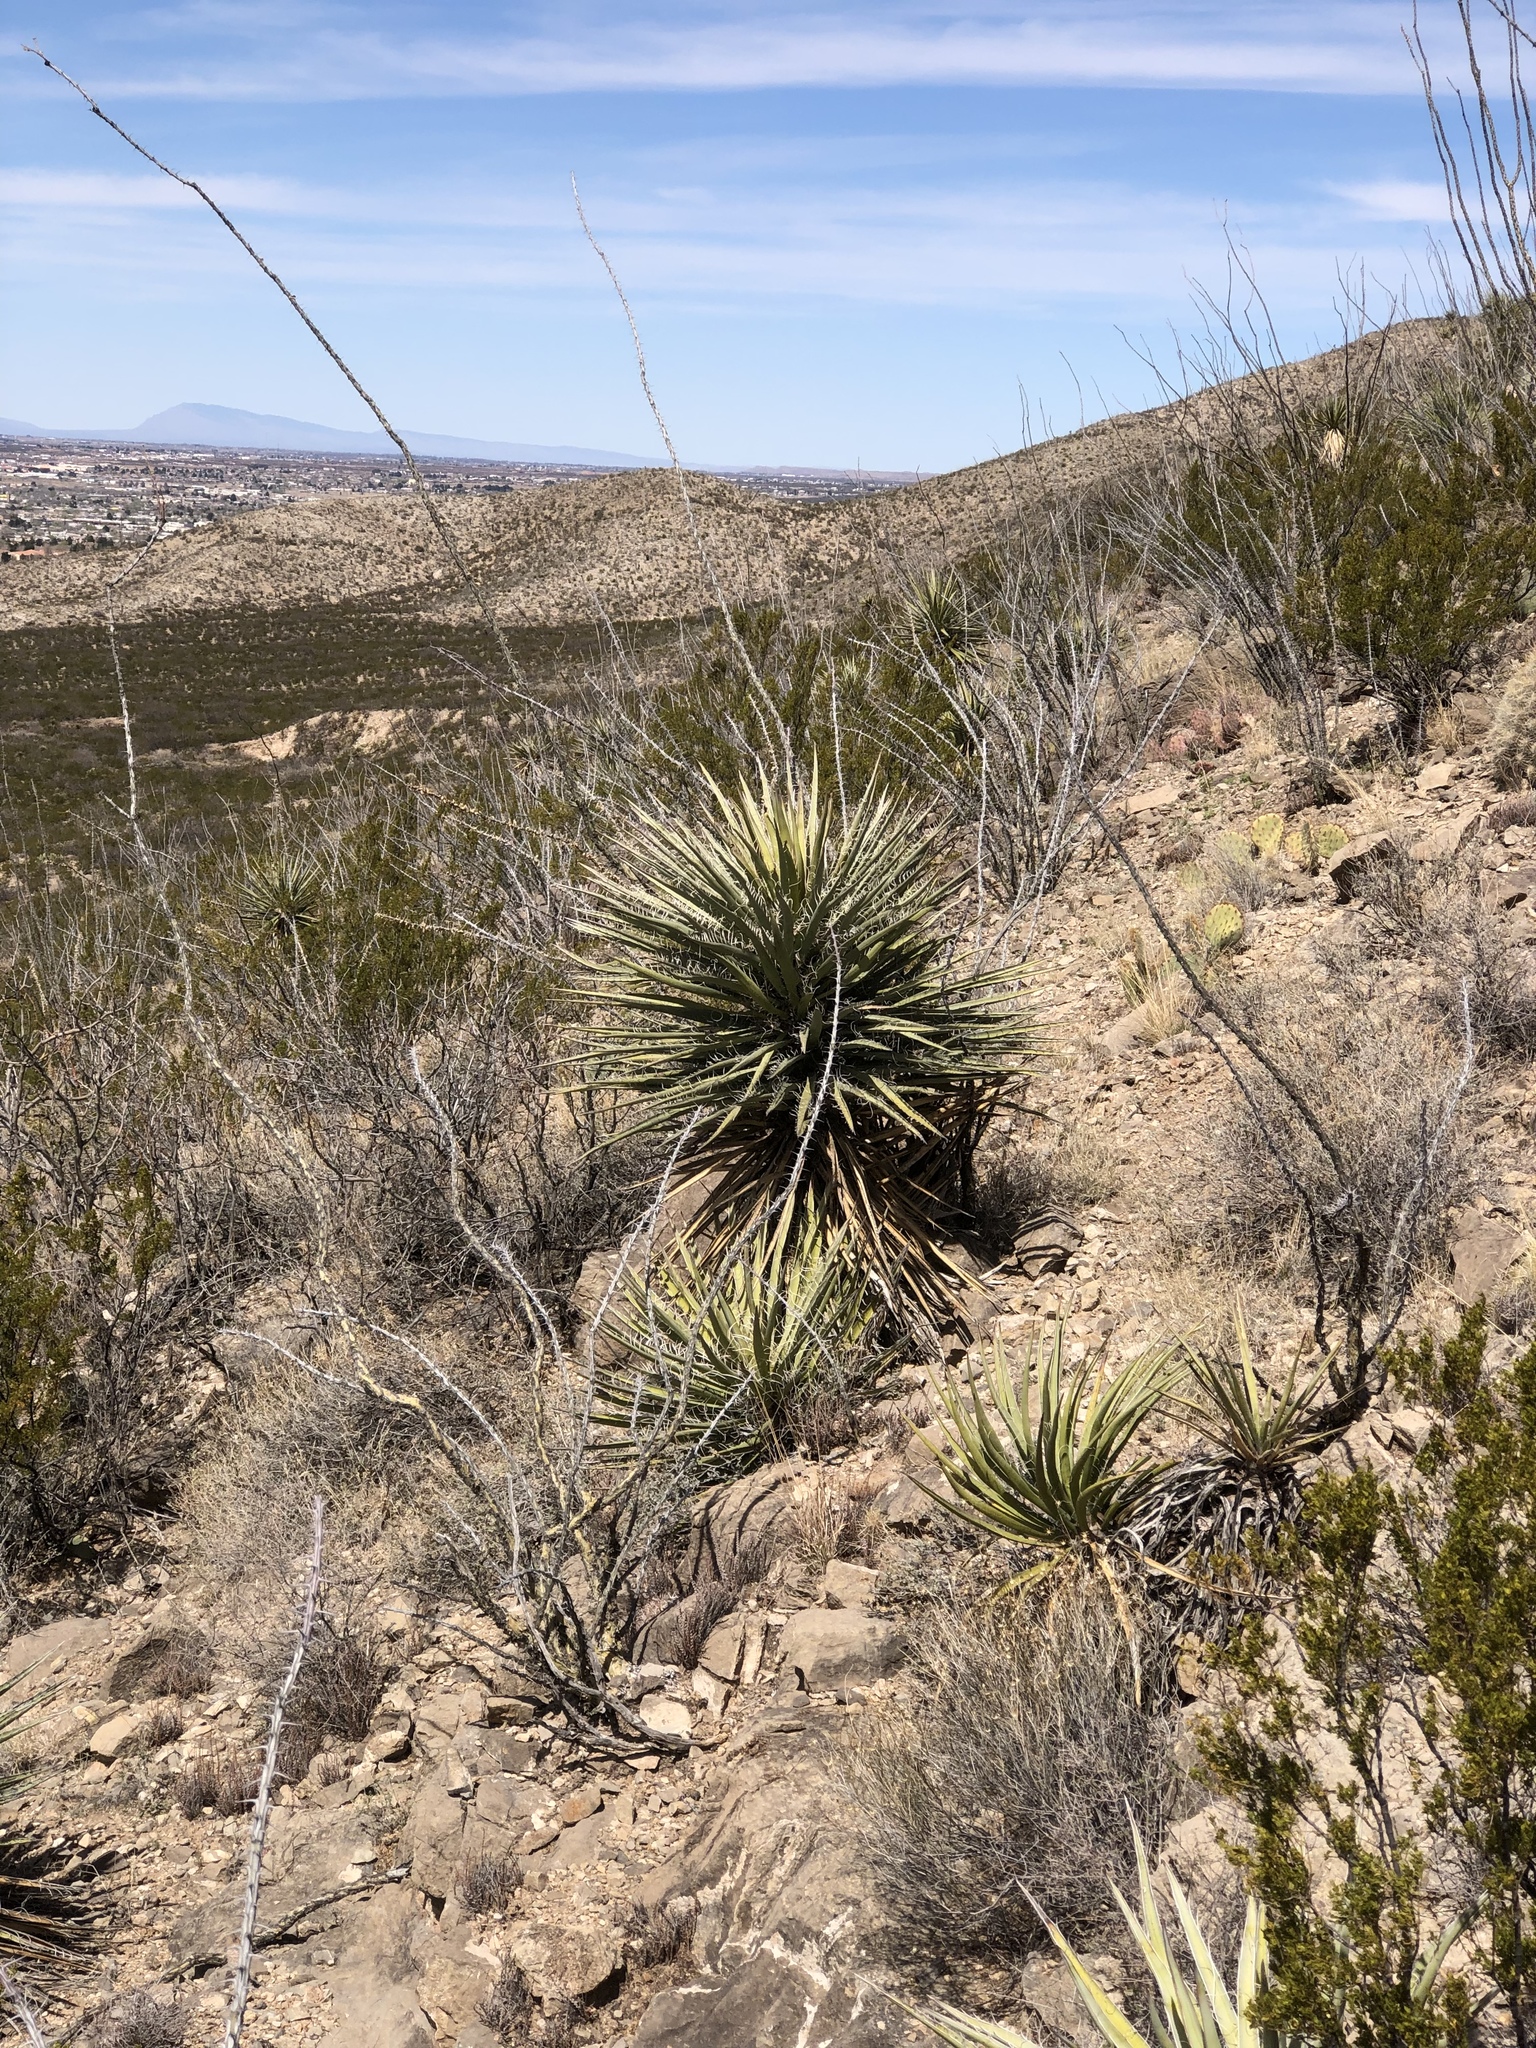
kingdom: Plantae
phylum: Tracheophyta
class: Magnoliopsida
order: Ericales
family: Fouquieriaceae
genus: Fouquieria
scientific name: Fouquieria splendens
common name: Vine-cactus
